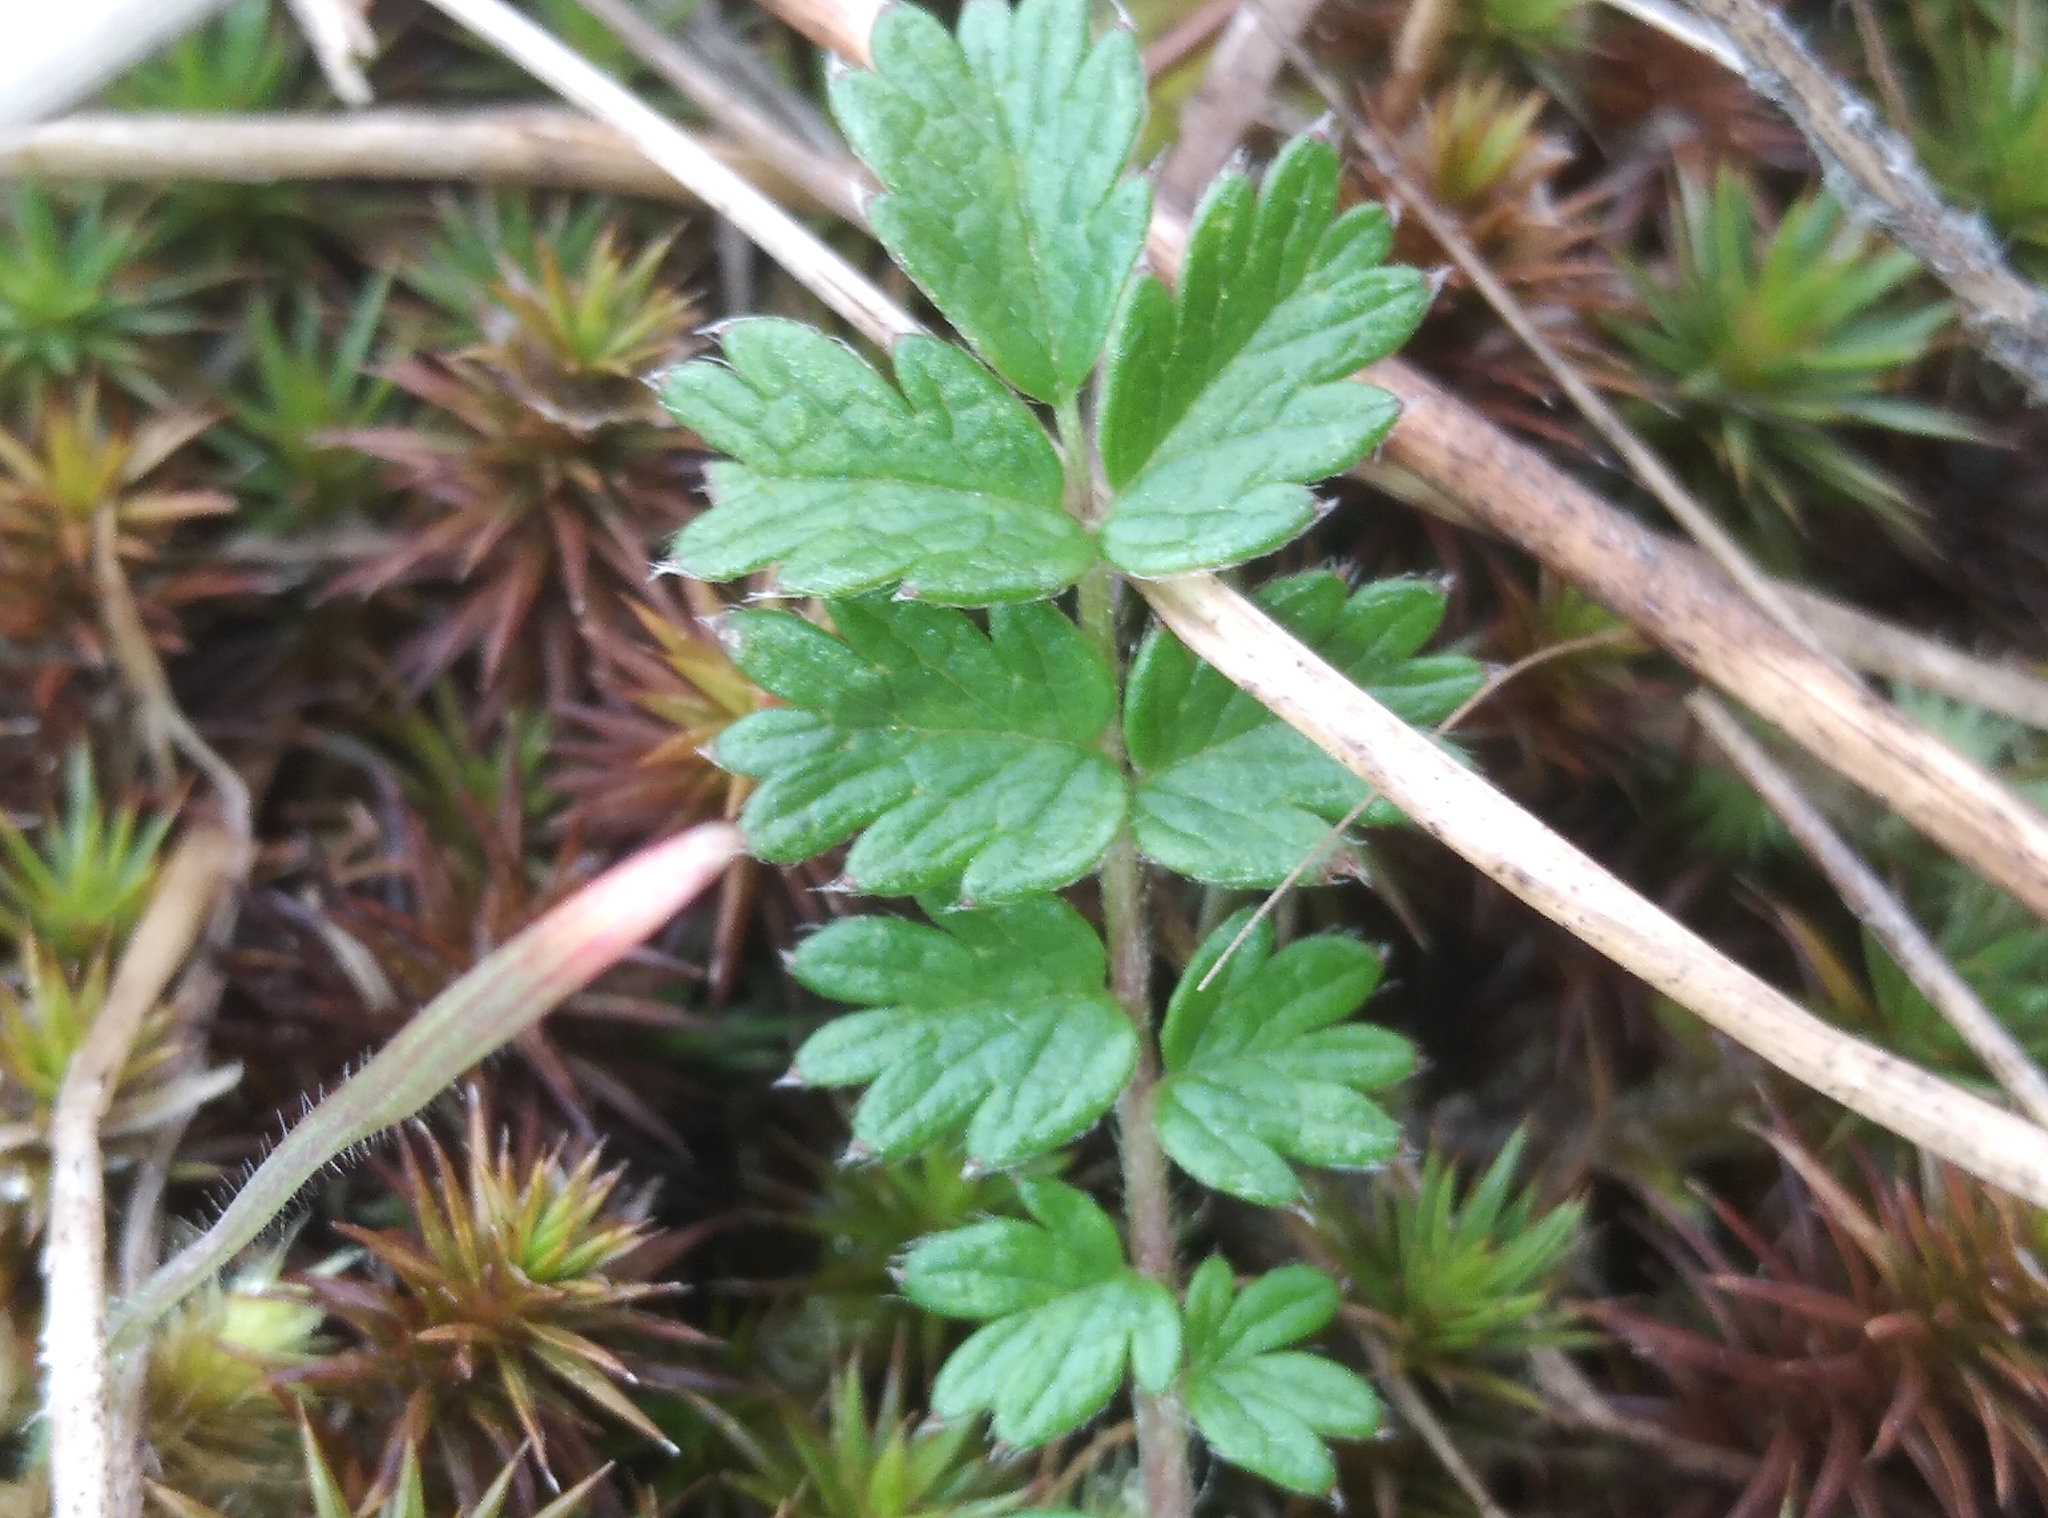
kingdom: Plantae
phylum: Tracheophyta
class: Magnoliopsida
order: Rosales
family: Rosaceae
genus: Acaena
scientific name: Acaena agnipila
